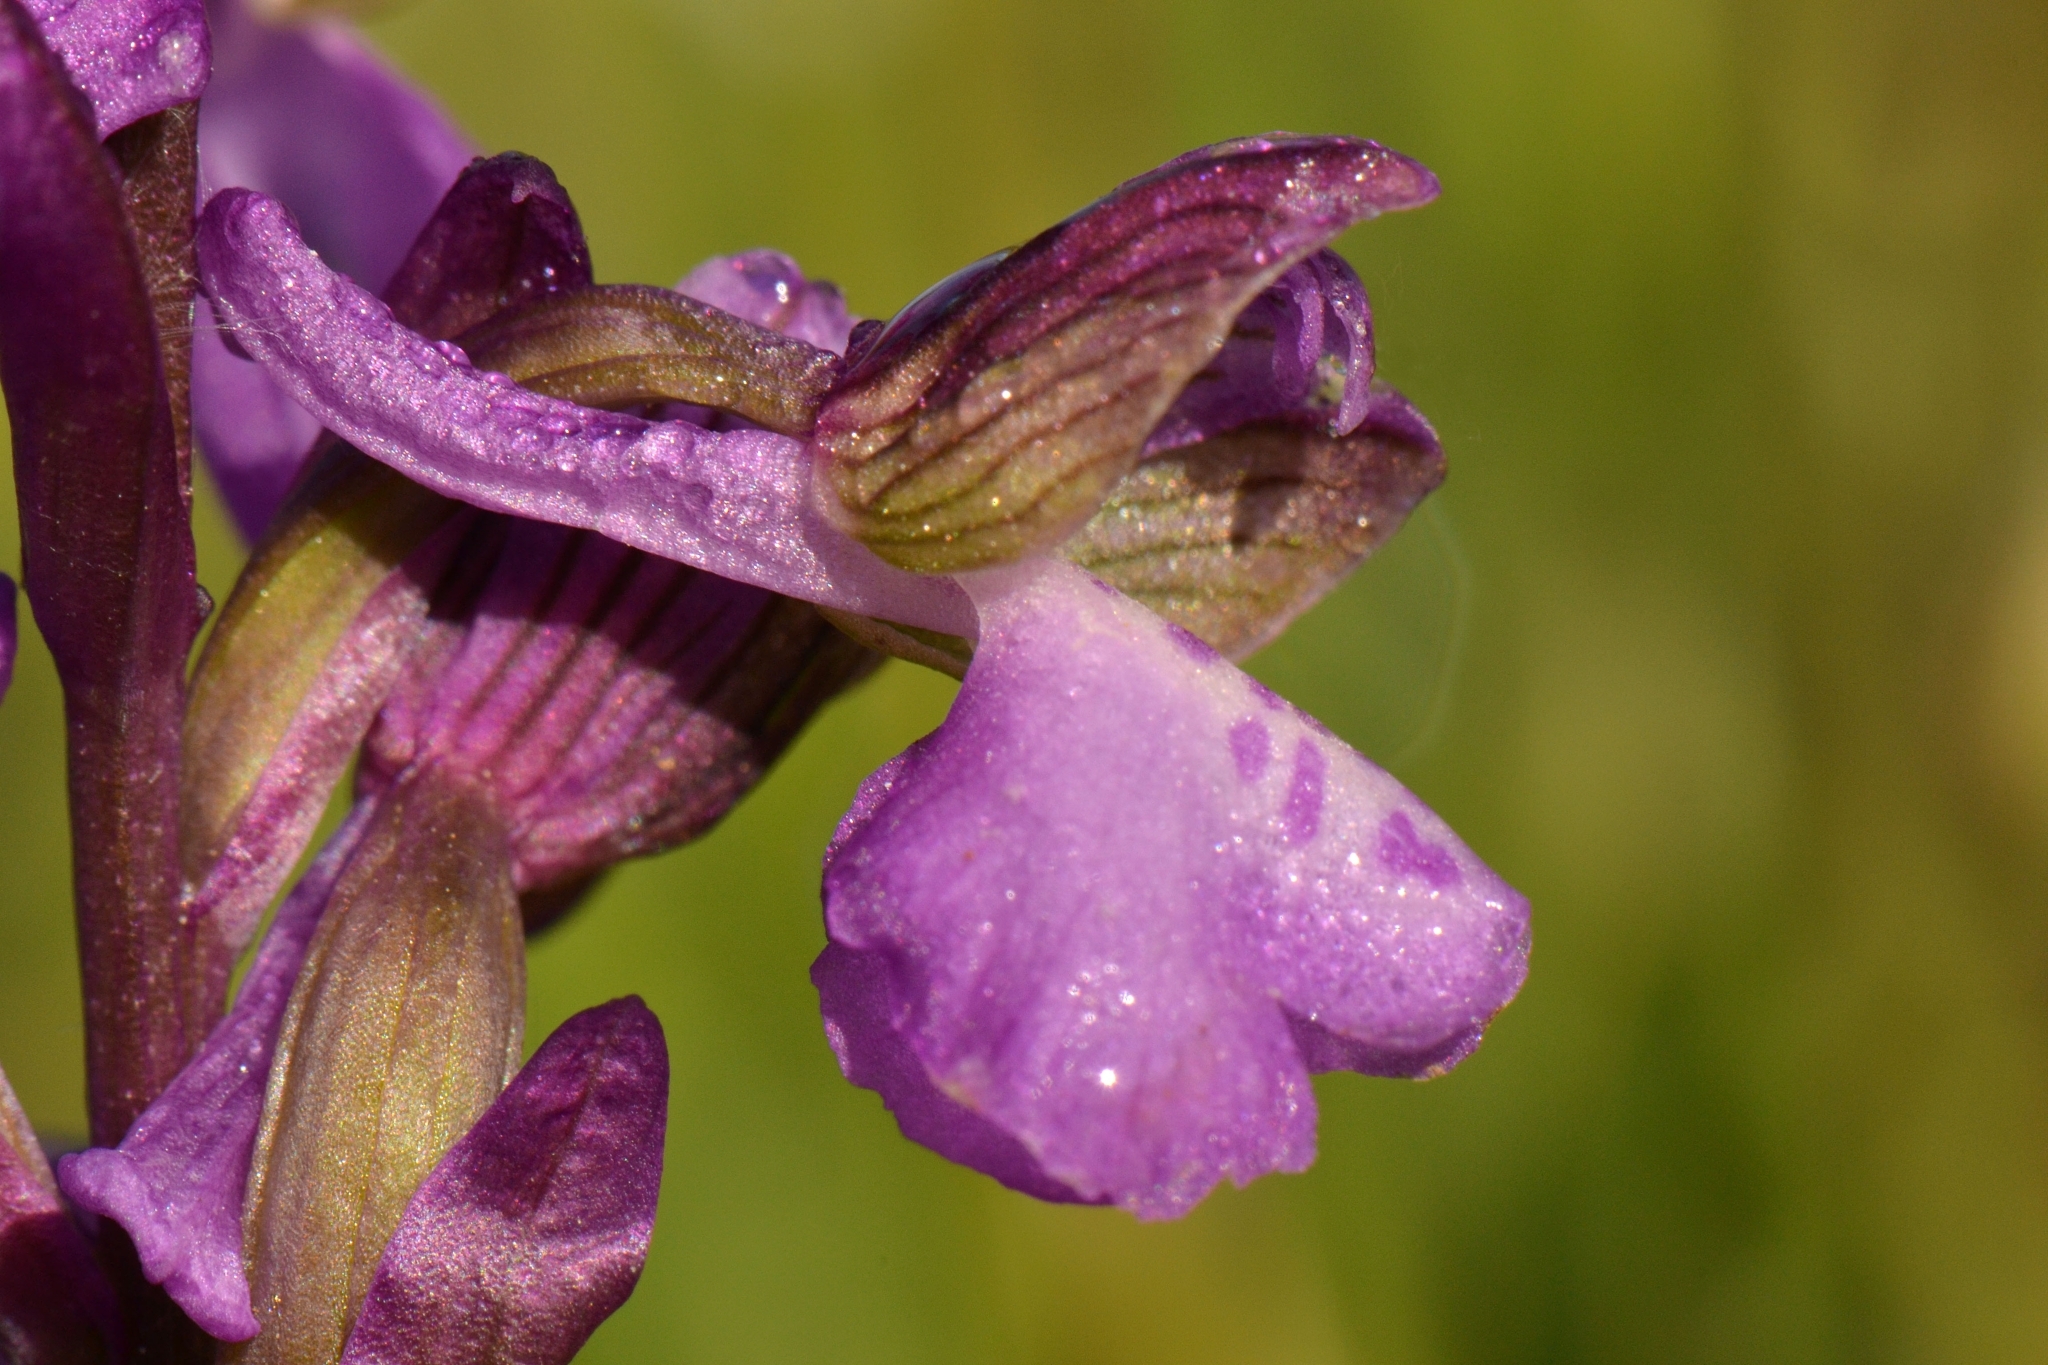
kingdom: Plantae
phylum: Tracheophyta
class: Liliopsida
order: Asparagales
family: Orchidaceae
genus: Anacamptis
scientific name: Anacamptis morio
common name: Green-winged orchid
